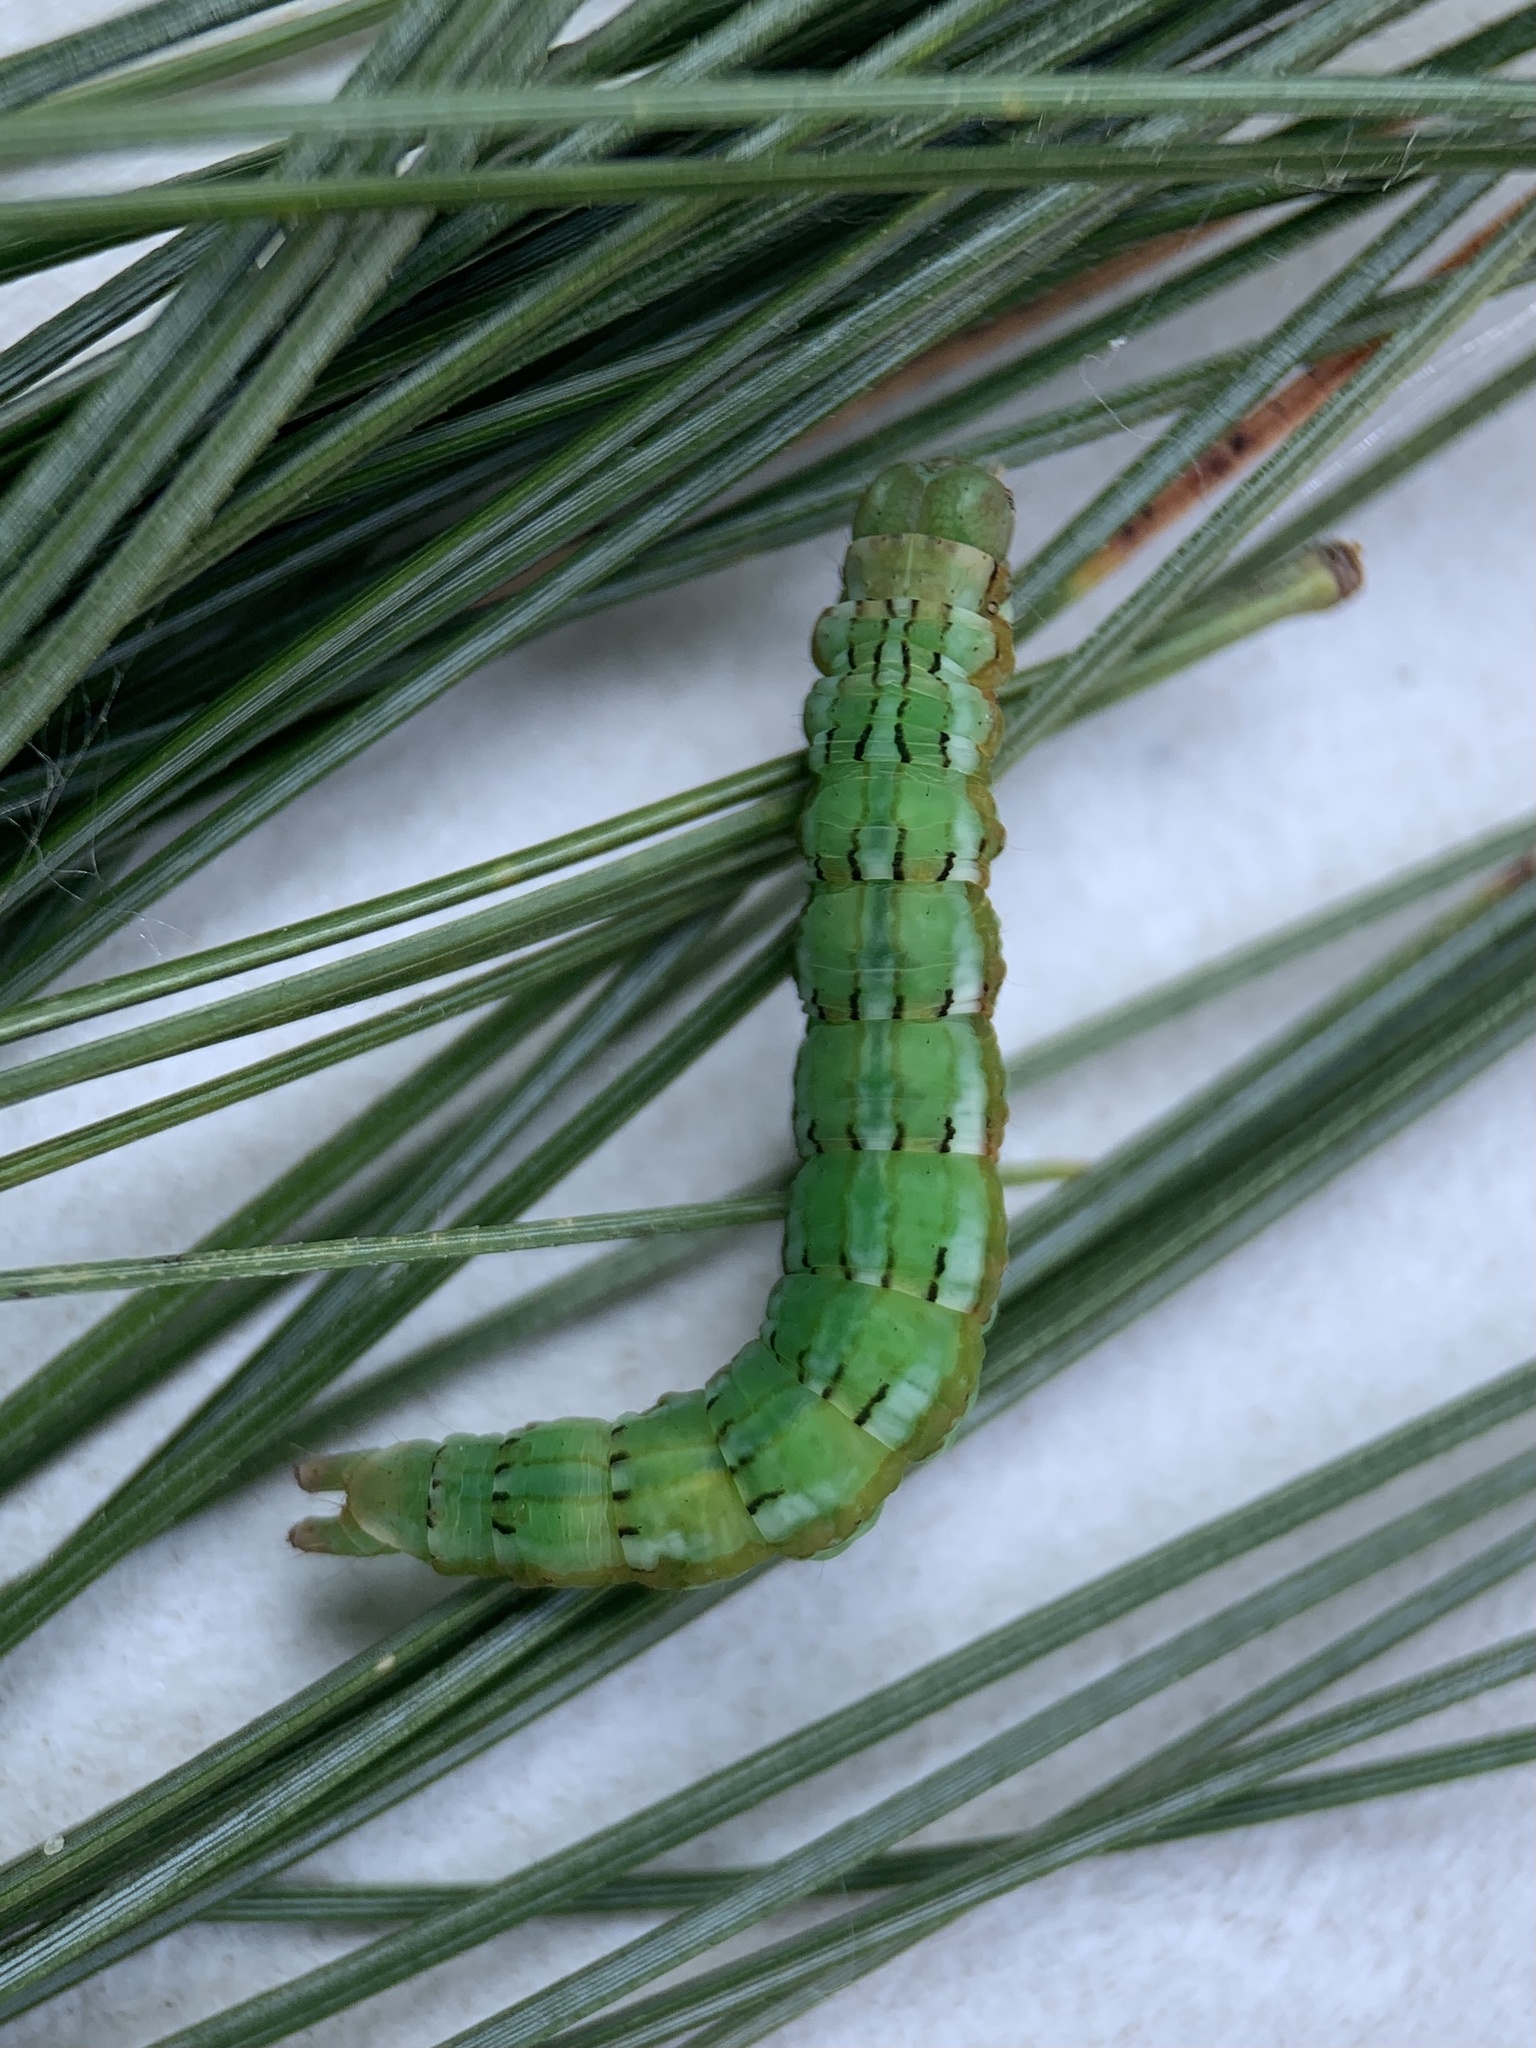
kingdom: Animalia
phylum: Arthropoda
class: Insecta
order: Lepidoptera
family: Erebidae
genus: Zale
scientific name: Zale helata
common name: Brown-spotted zale moth
